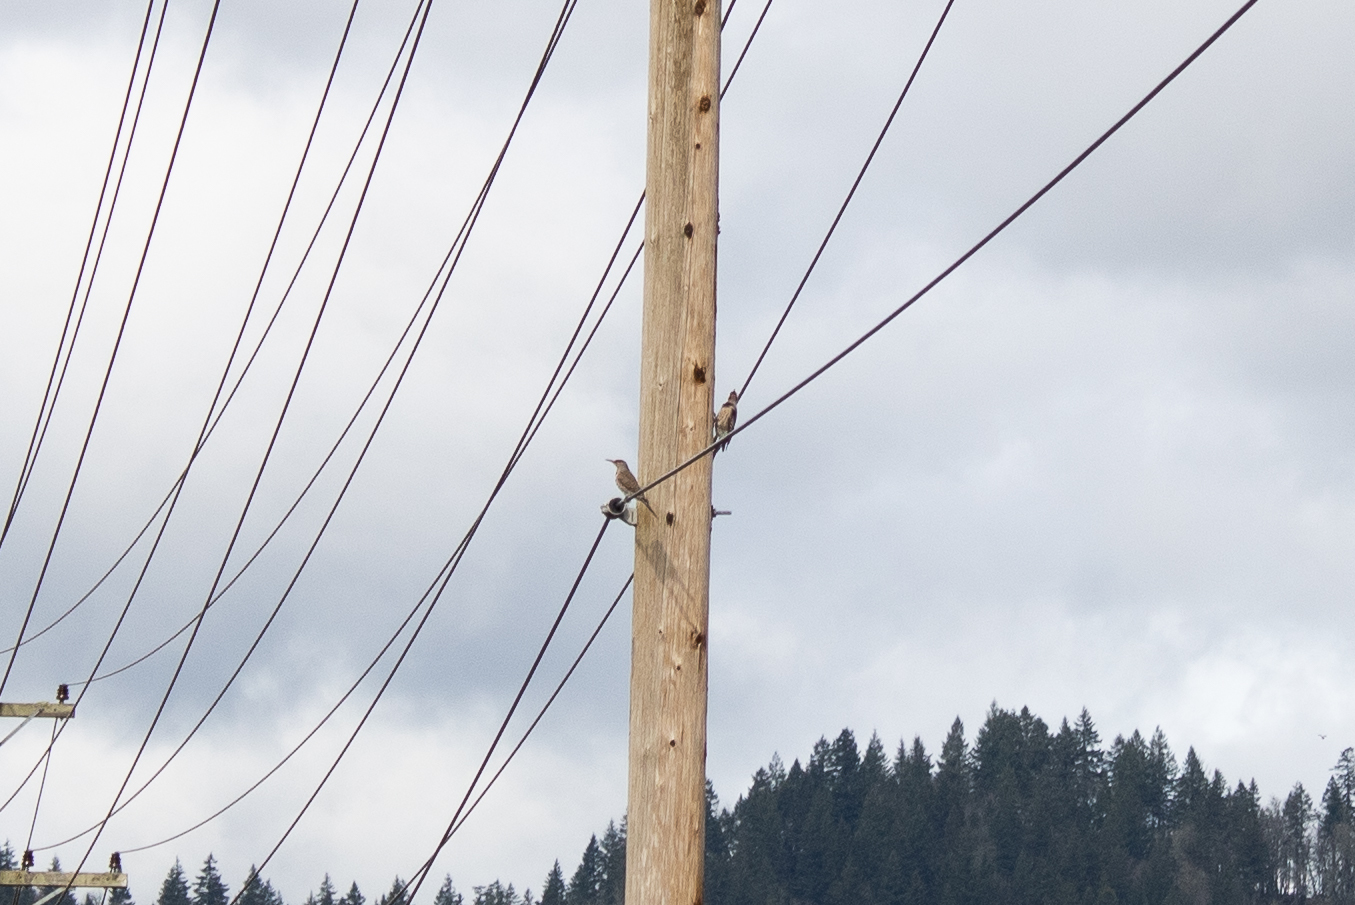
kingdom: Animalia
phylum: Chordata
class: Aves
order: Piciformes
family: Picidae
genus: Colaptes
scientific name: Colaptes auratus
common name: Northern flicker
